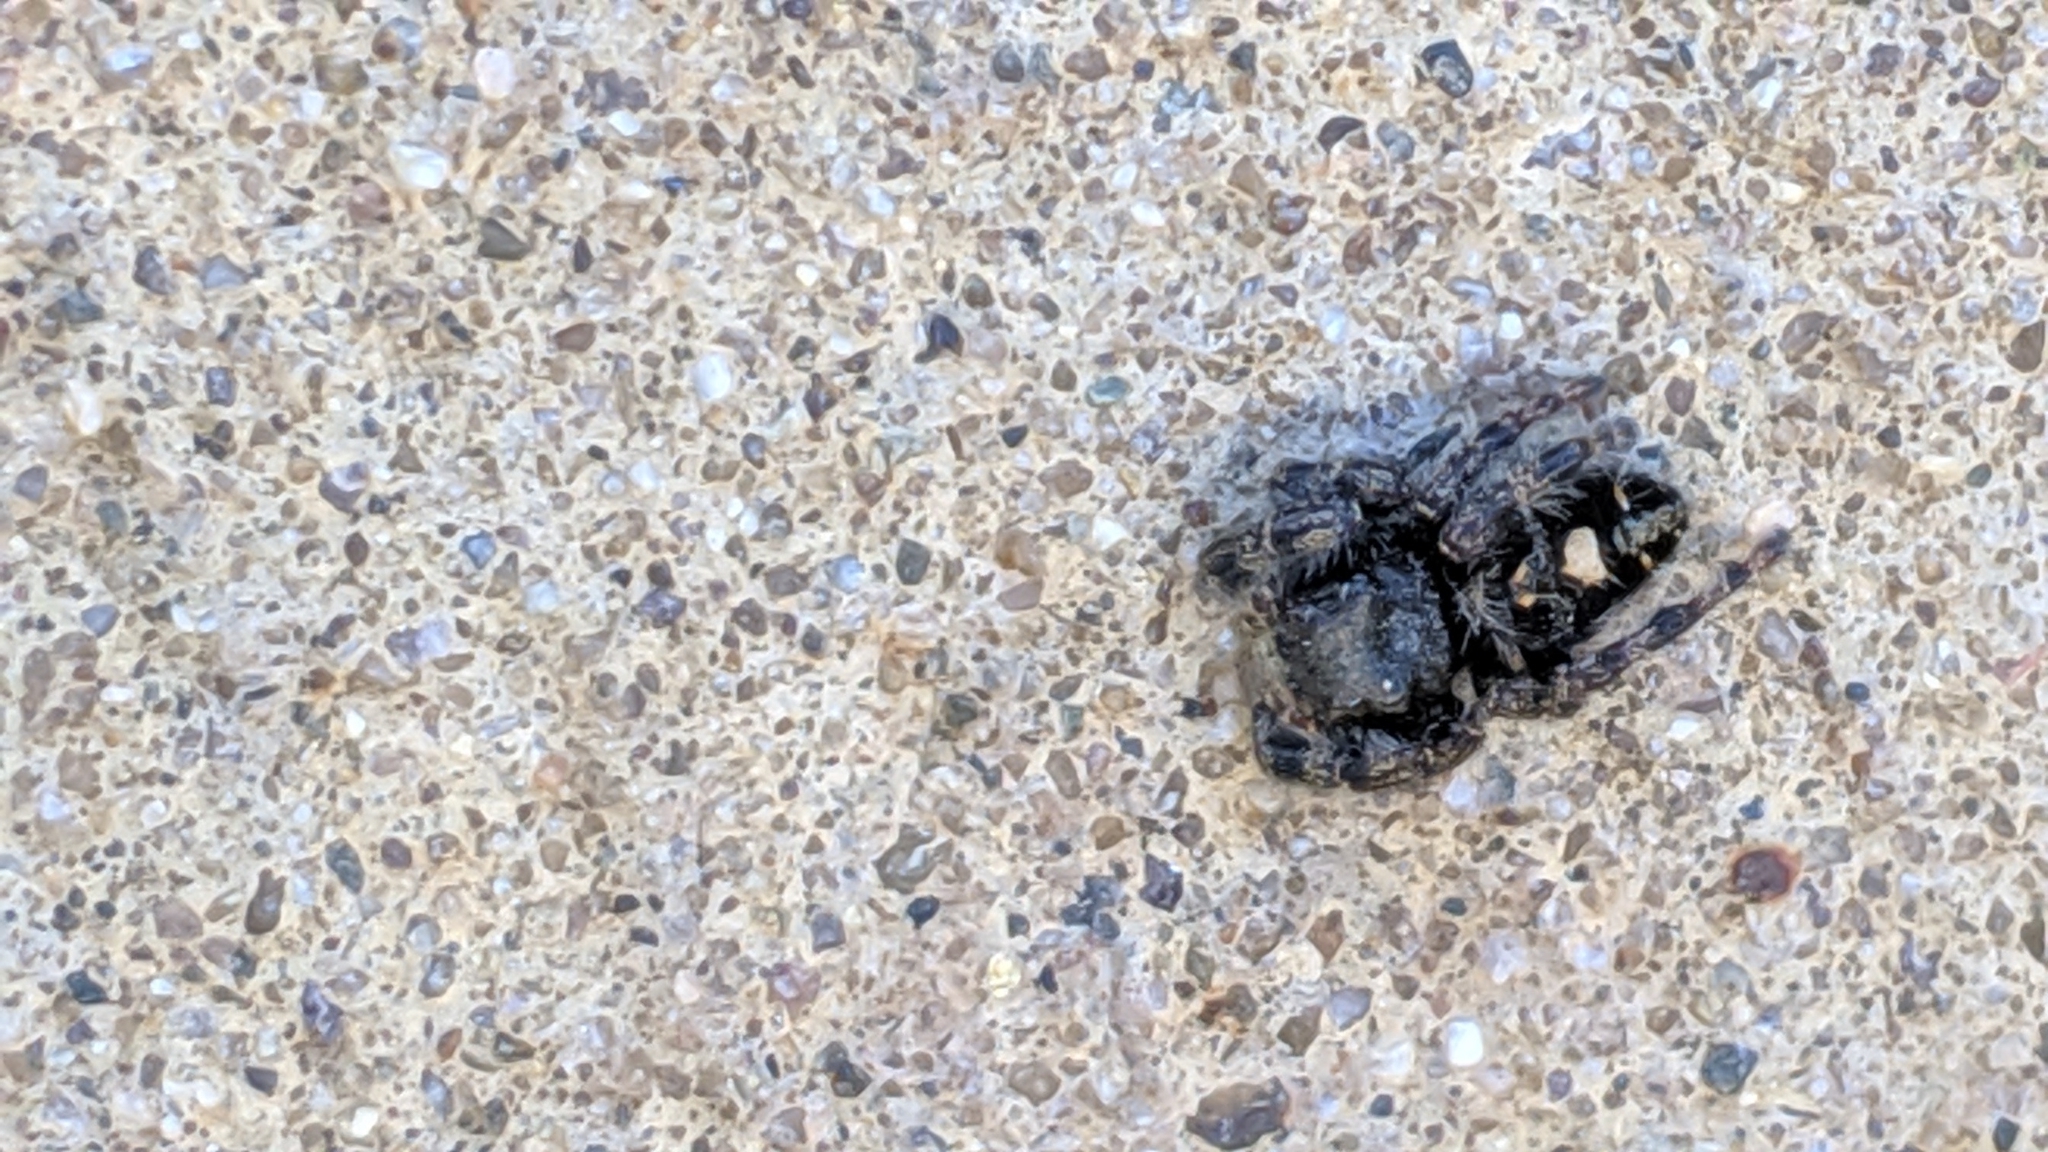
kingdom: Animalia
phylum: Arthropoda
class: Arachnida
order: Araneae
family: Salticidae
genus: Phidippus
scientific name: Phidippus audax
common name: Bold jumper
